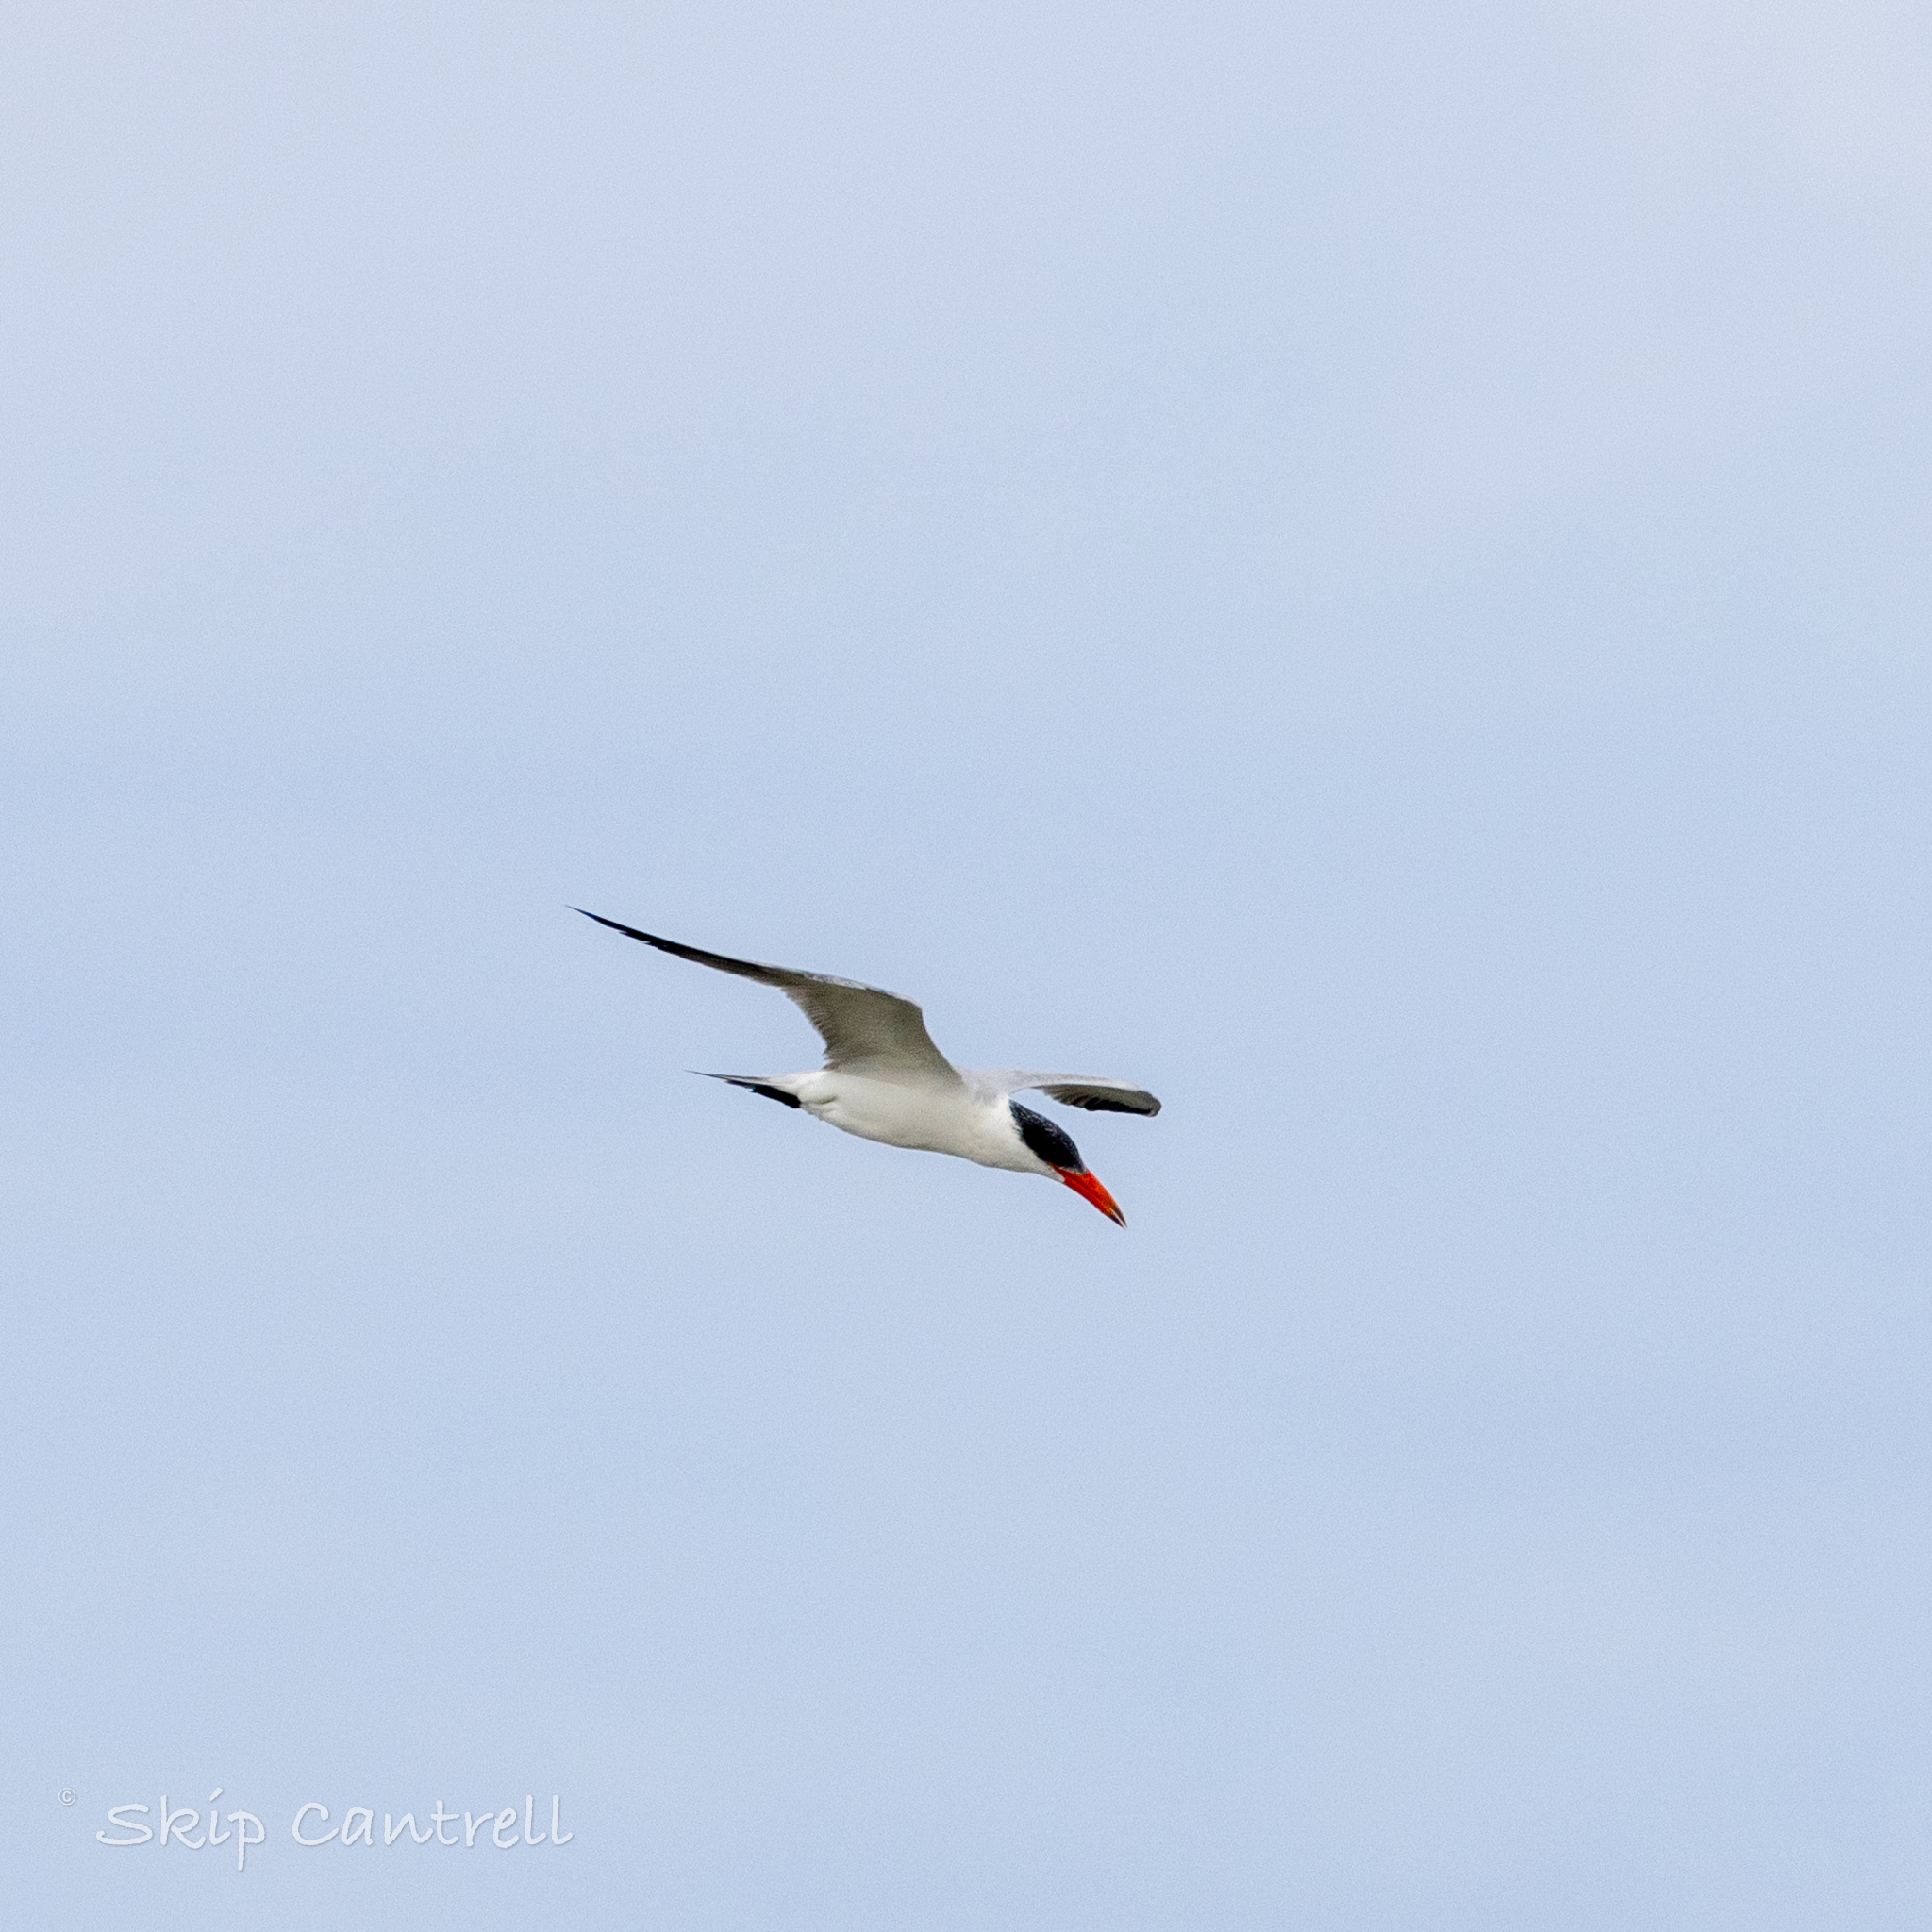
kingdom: Animalia
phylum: Chordata
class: Aves
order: Charadriiformes
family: Laridae
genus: Hydroprogne
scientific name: Hydroprogne caspia
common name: Caspian tern
